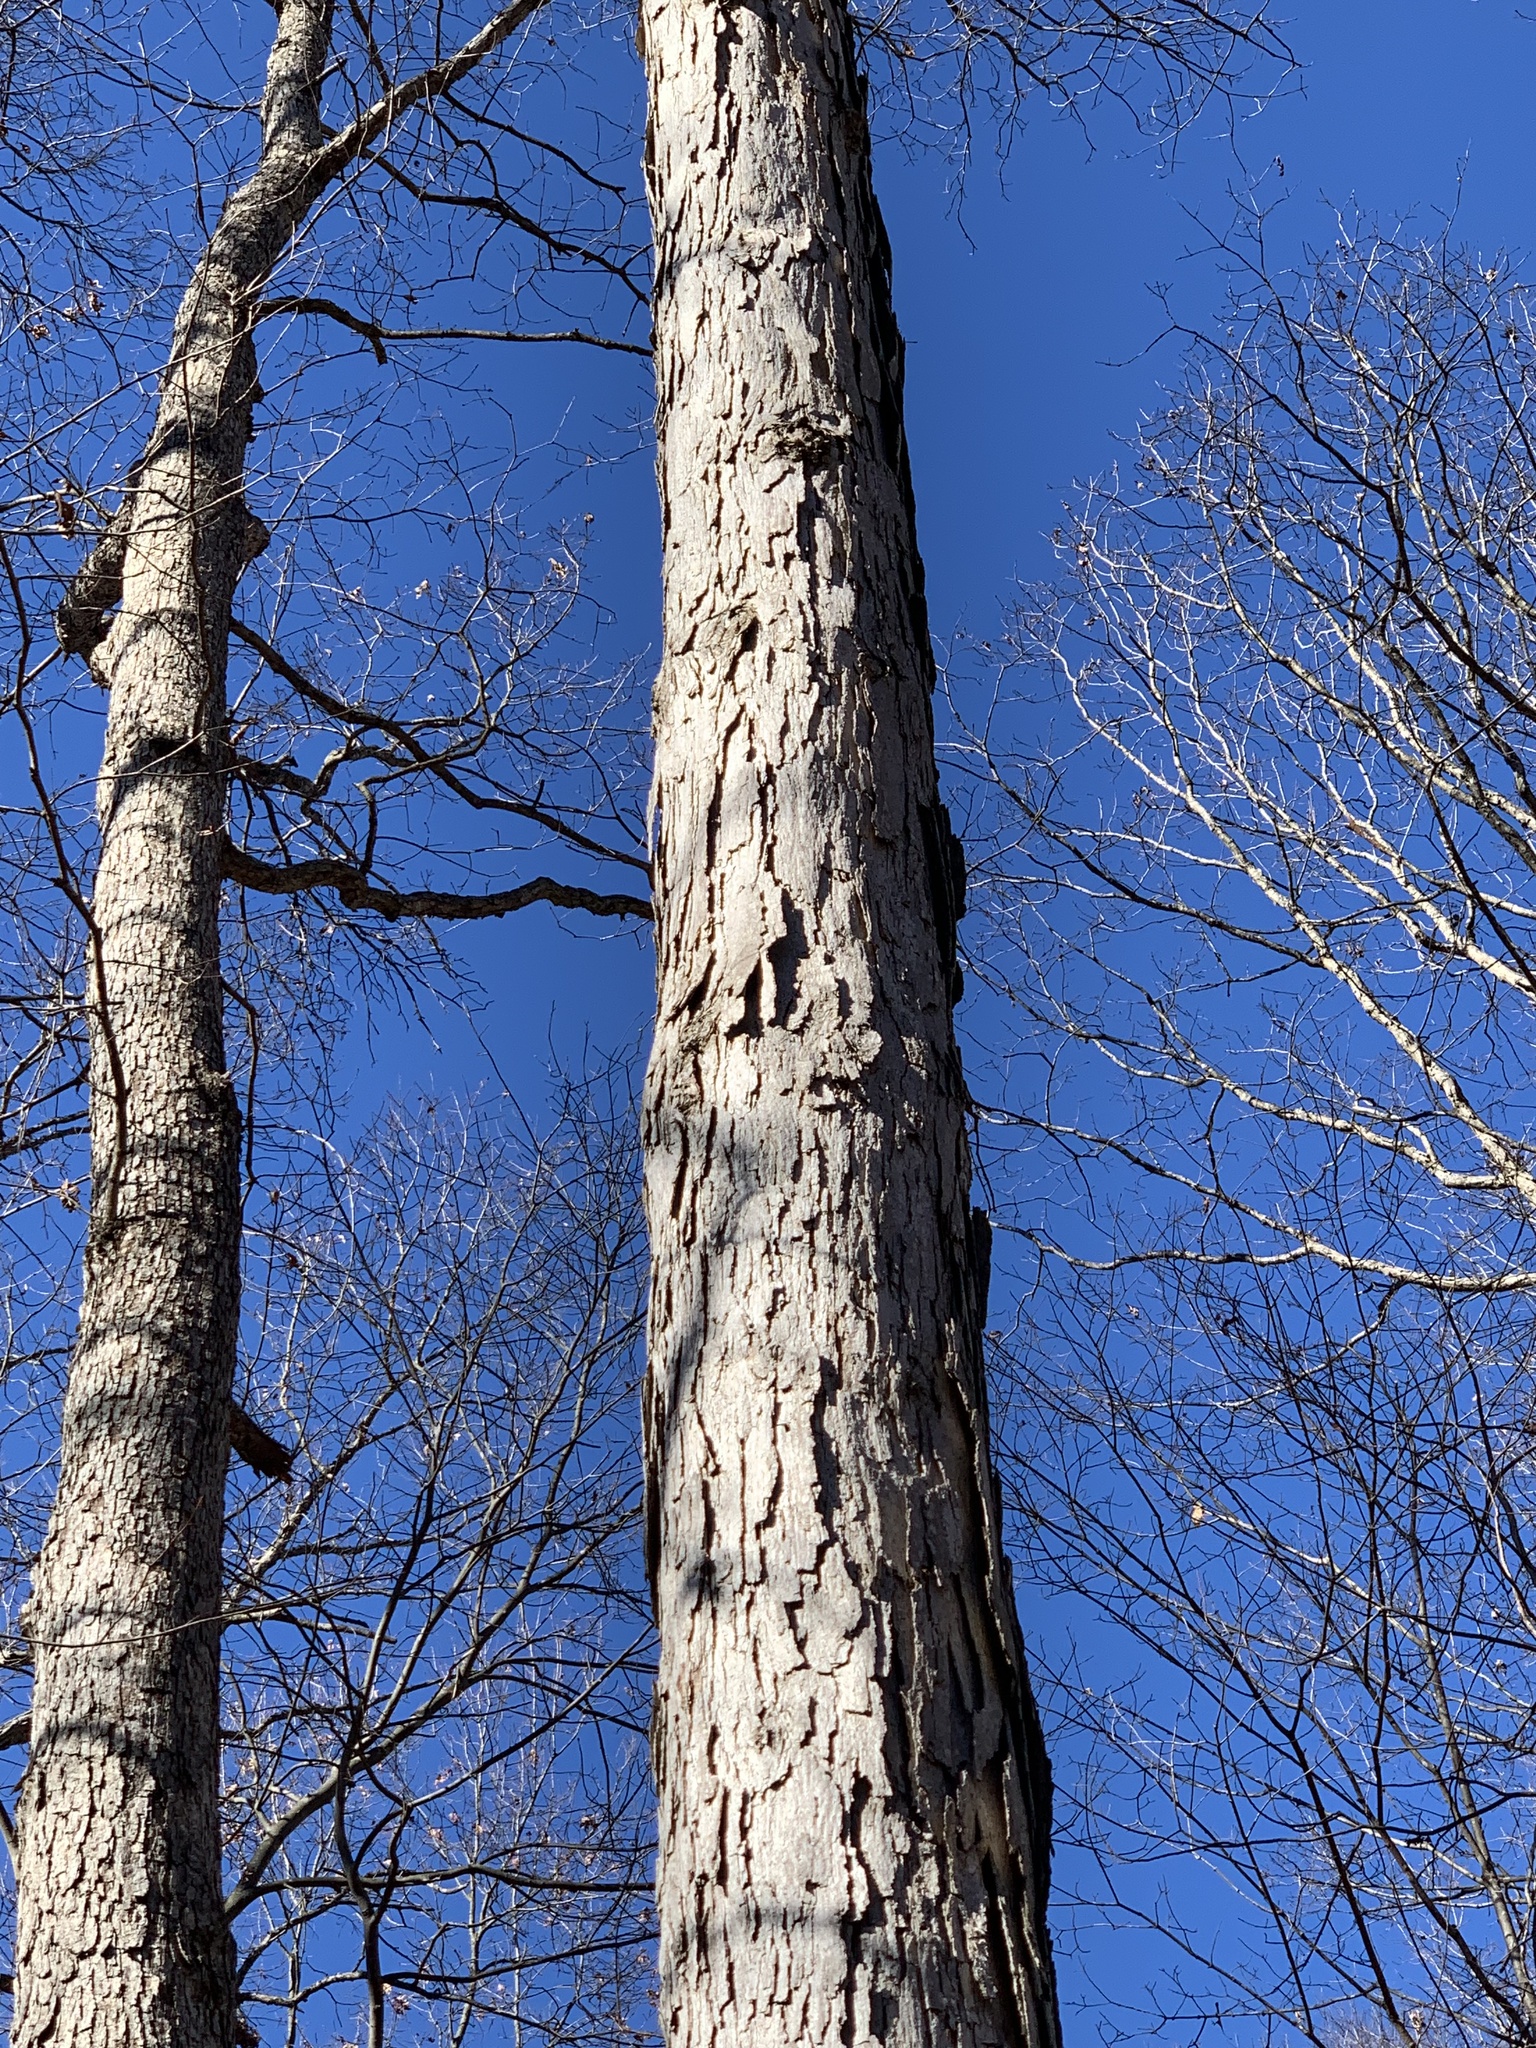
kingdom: Plantae
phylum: Tracheophyta
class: Magnoliopsida
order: Fagales
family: Fagaceae
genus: Quercus
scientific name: Quercus alba
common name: White oak
